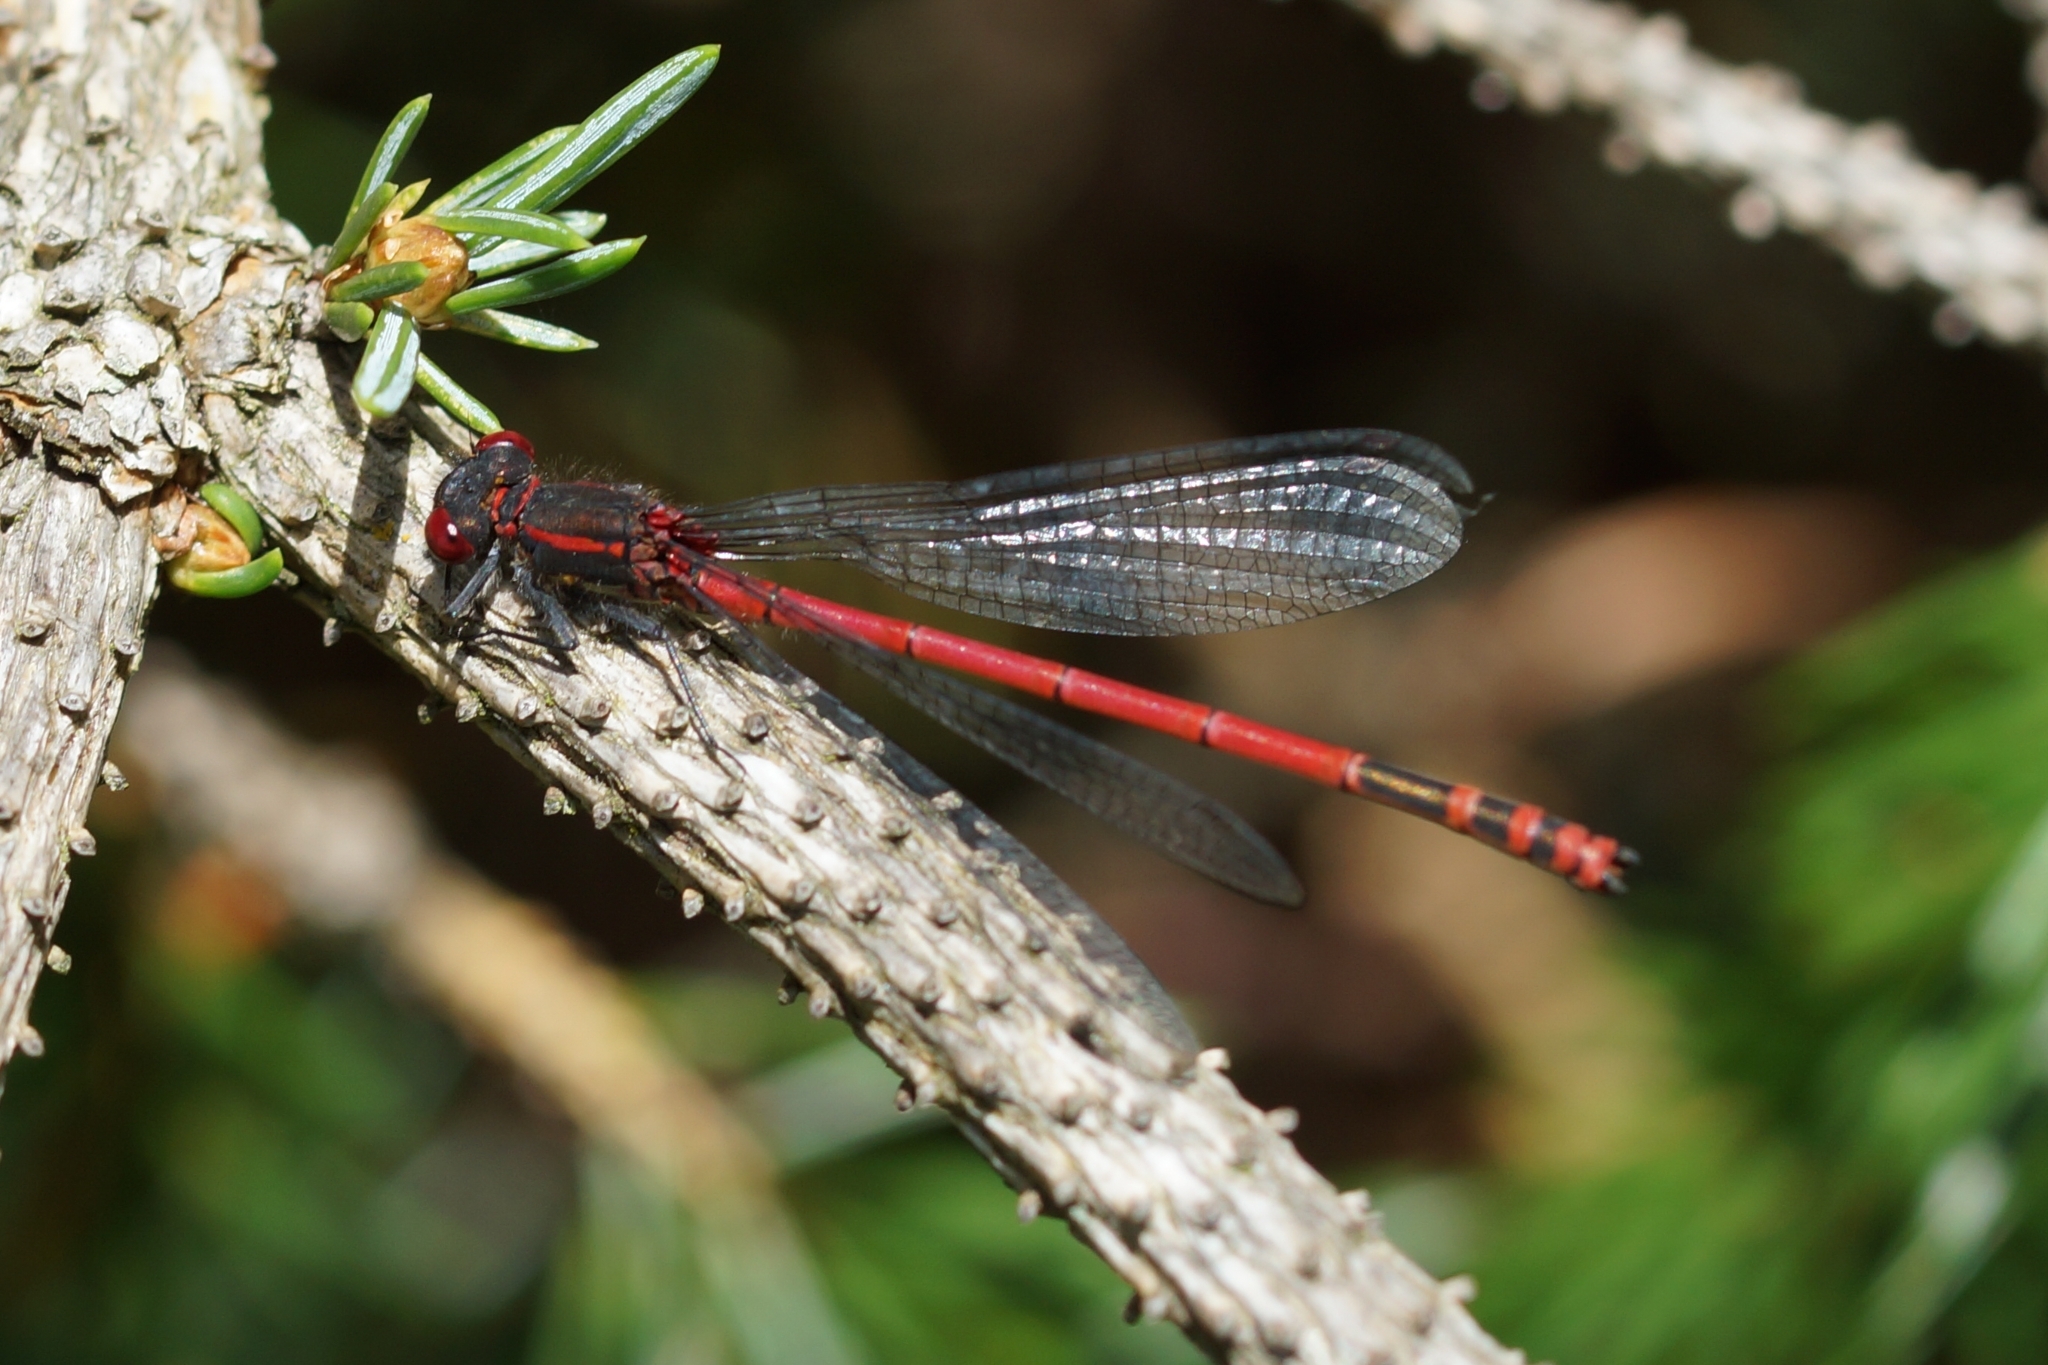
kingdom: Animalia
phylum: Arthropoda
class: Insecta
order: Odonata
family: Coenagrionidae
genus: Pyrrhosoma
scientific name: Pyrrhosoma nymphula
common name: Large red damsel
